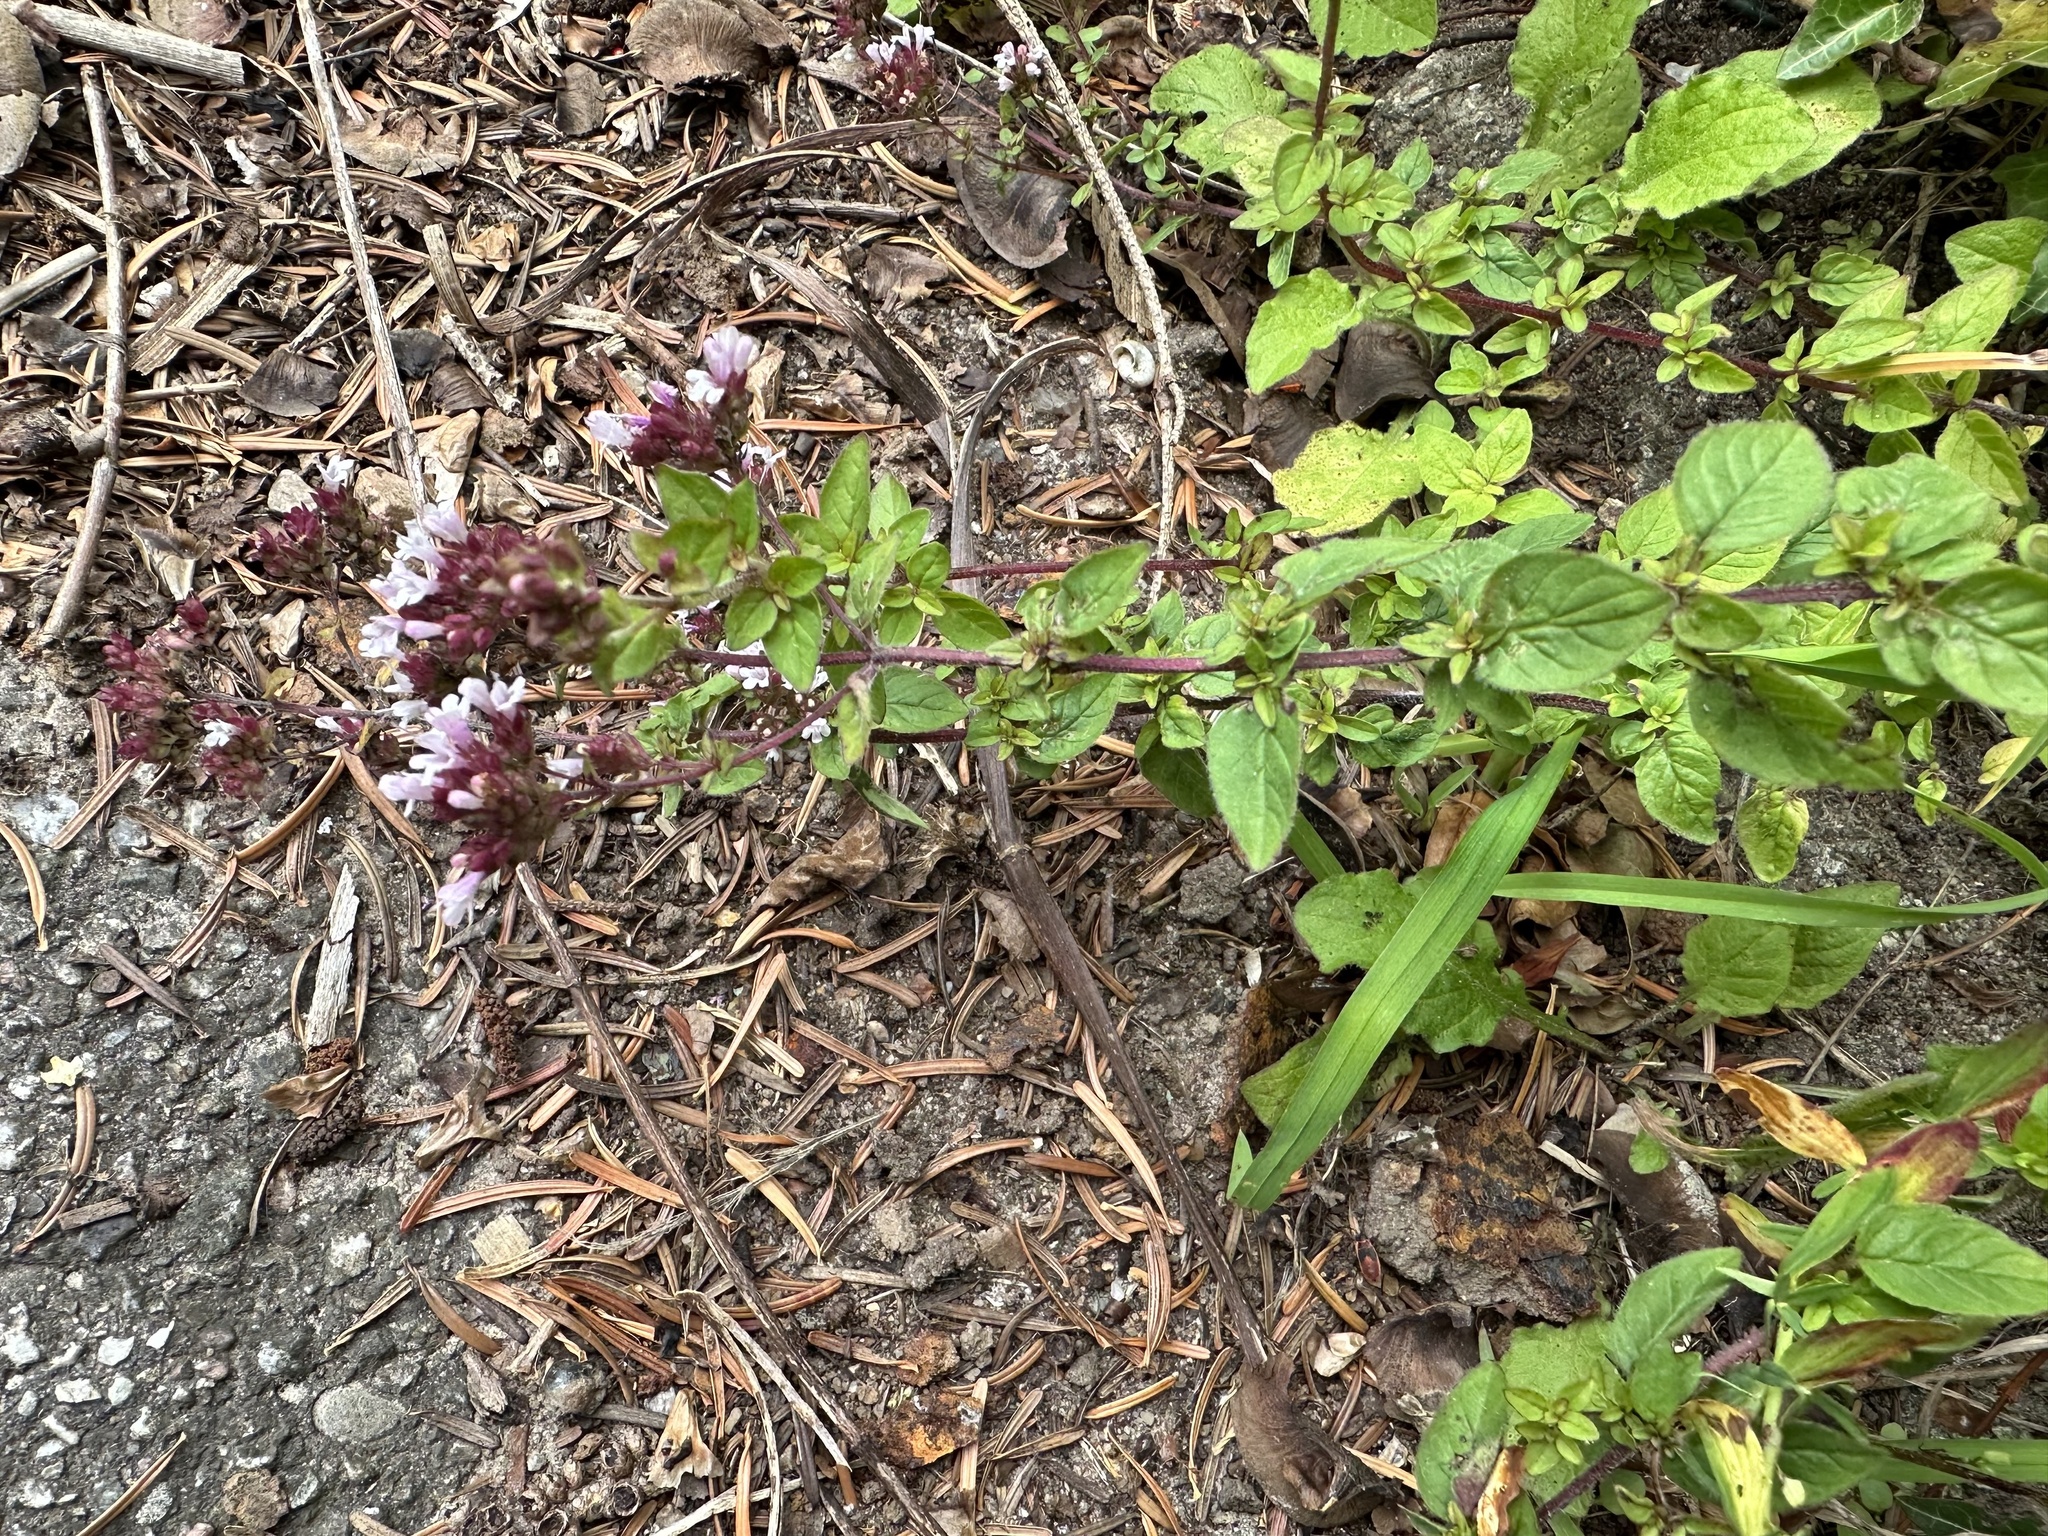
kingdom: Plantae
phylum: Tracheophyta
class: Magnoliopsida
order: Lamiales
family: Lamiaceae
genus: Origanum
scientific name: Origanum vulgare
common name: Wild marjoram
